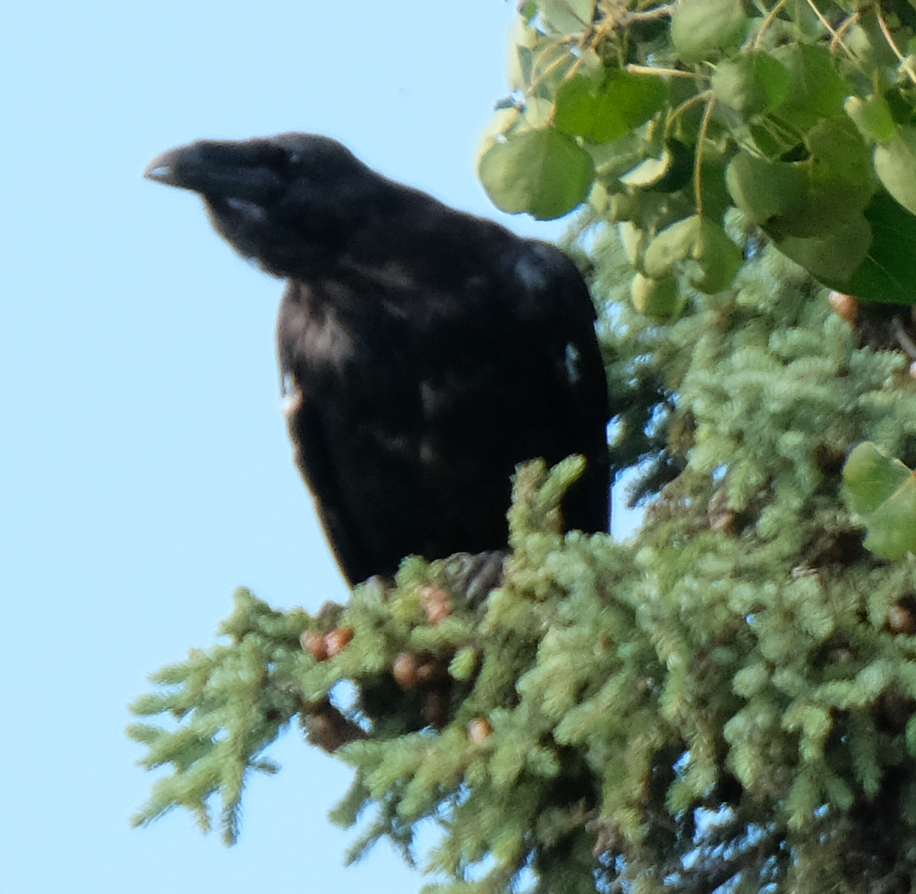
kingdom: Animalia
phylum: Chordata
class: Aves
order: Passeriformes
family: Corvidae
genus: Corvus
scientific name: Corvus corax
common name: Common raven
